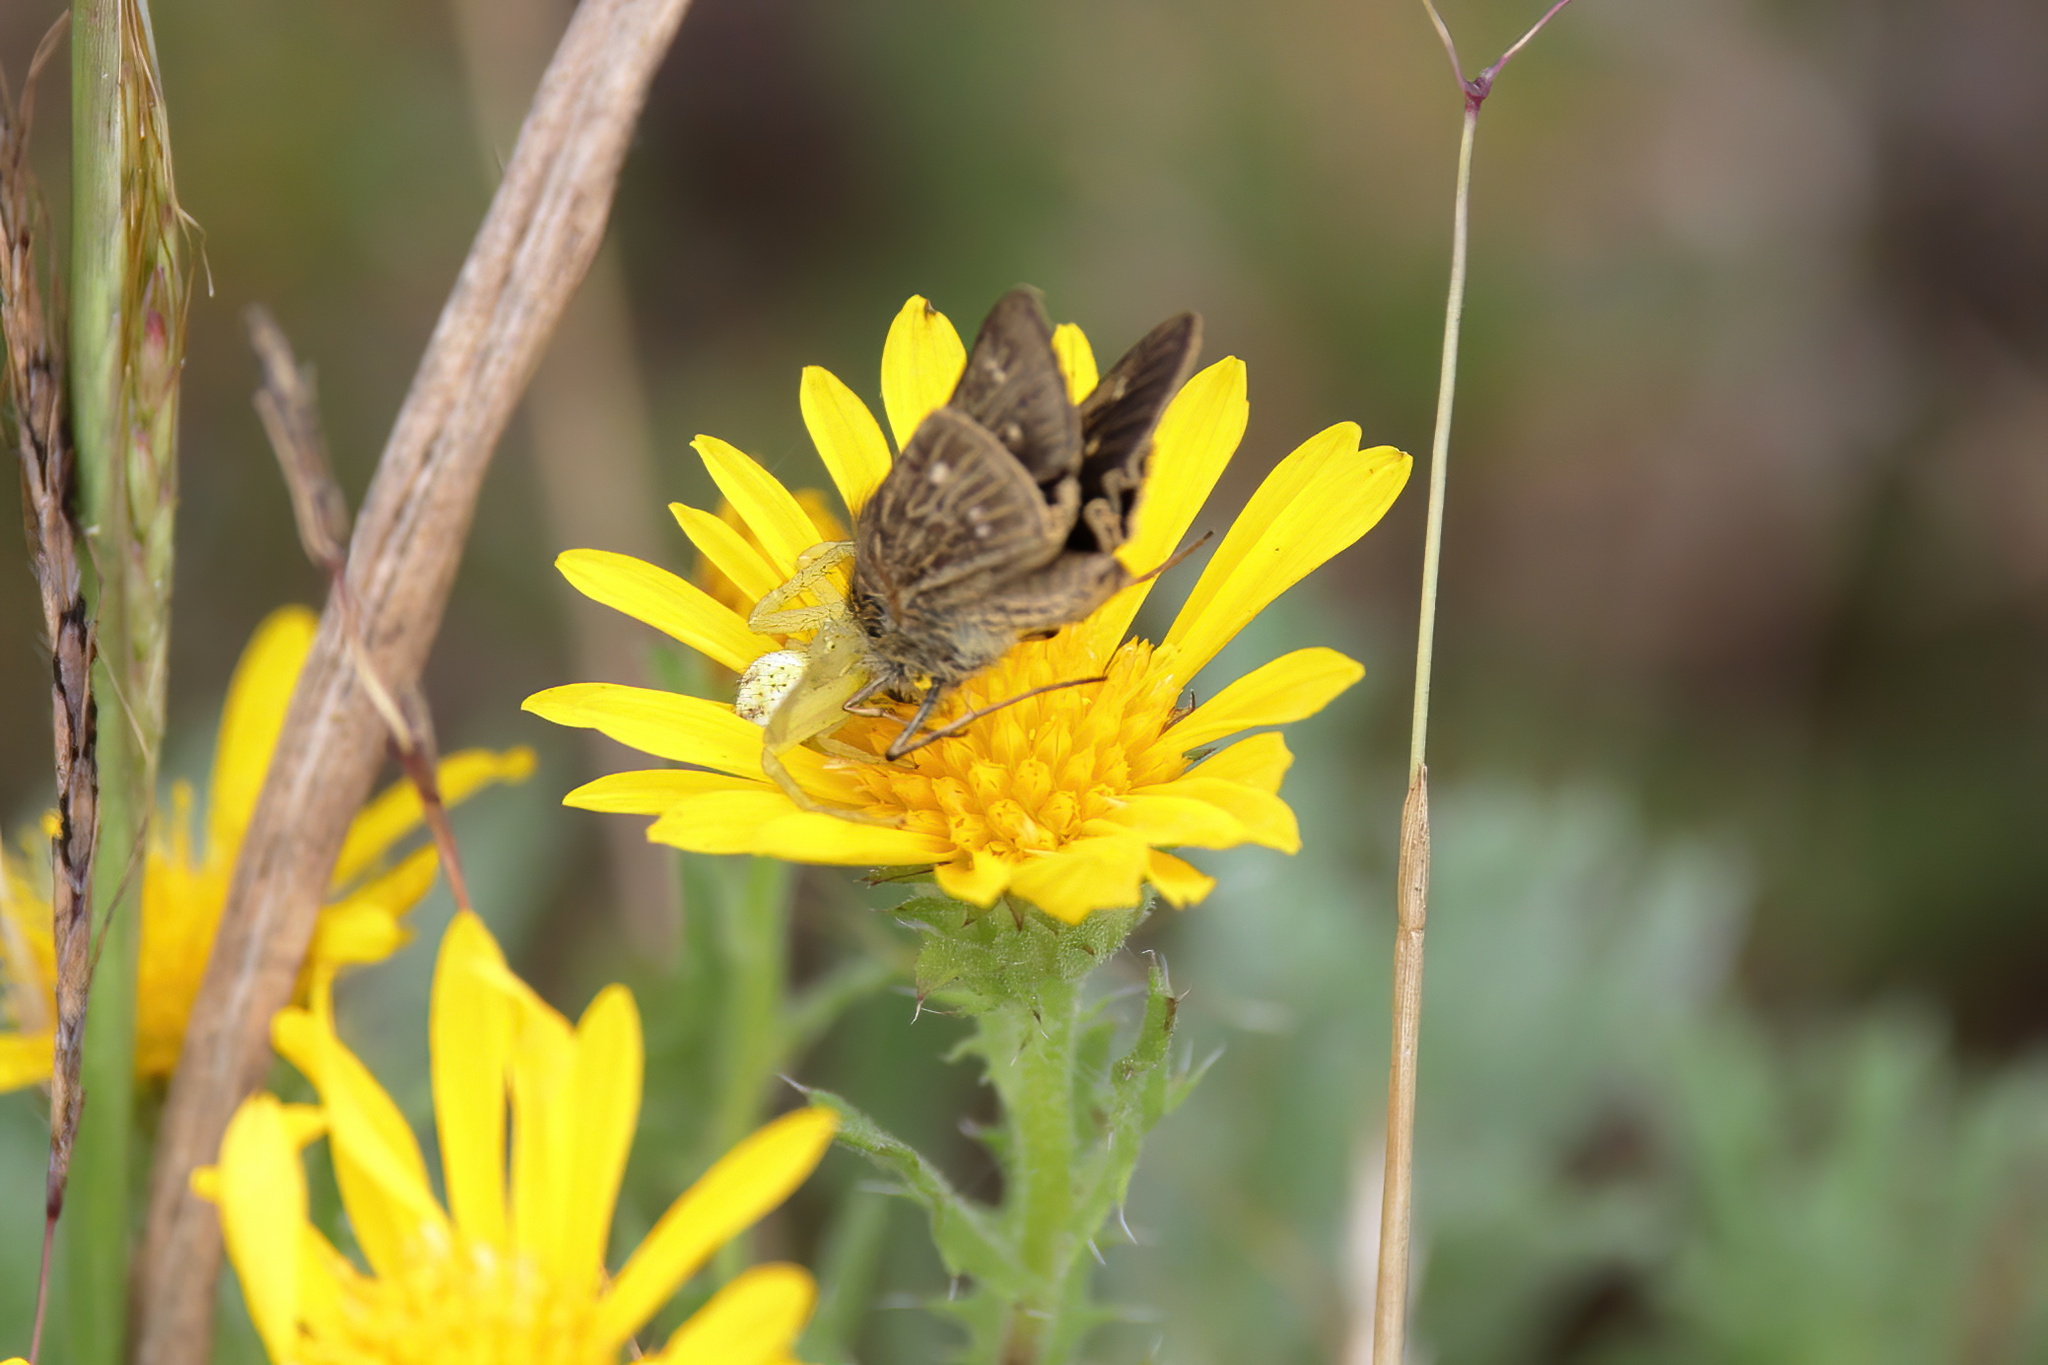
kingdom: Animalia
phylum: Arthropoda
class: Insecta
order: Lepidoptera
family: Hesperiidae
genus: Panoquina
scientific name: Panoquina panoquinoides
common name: Beach skipper
